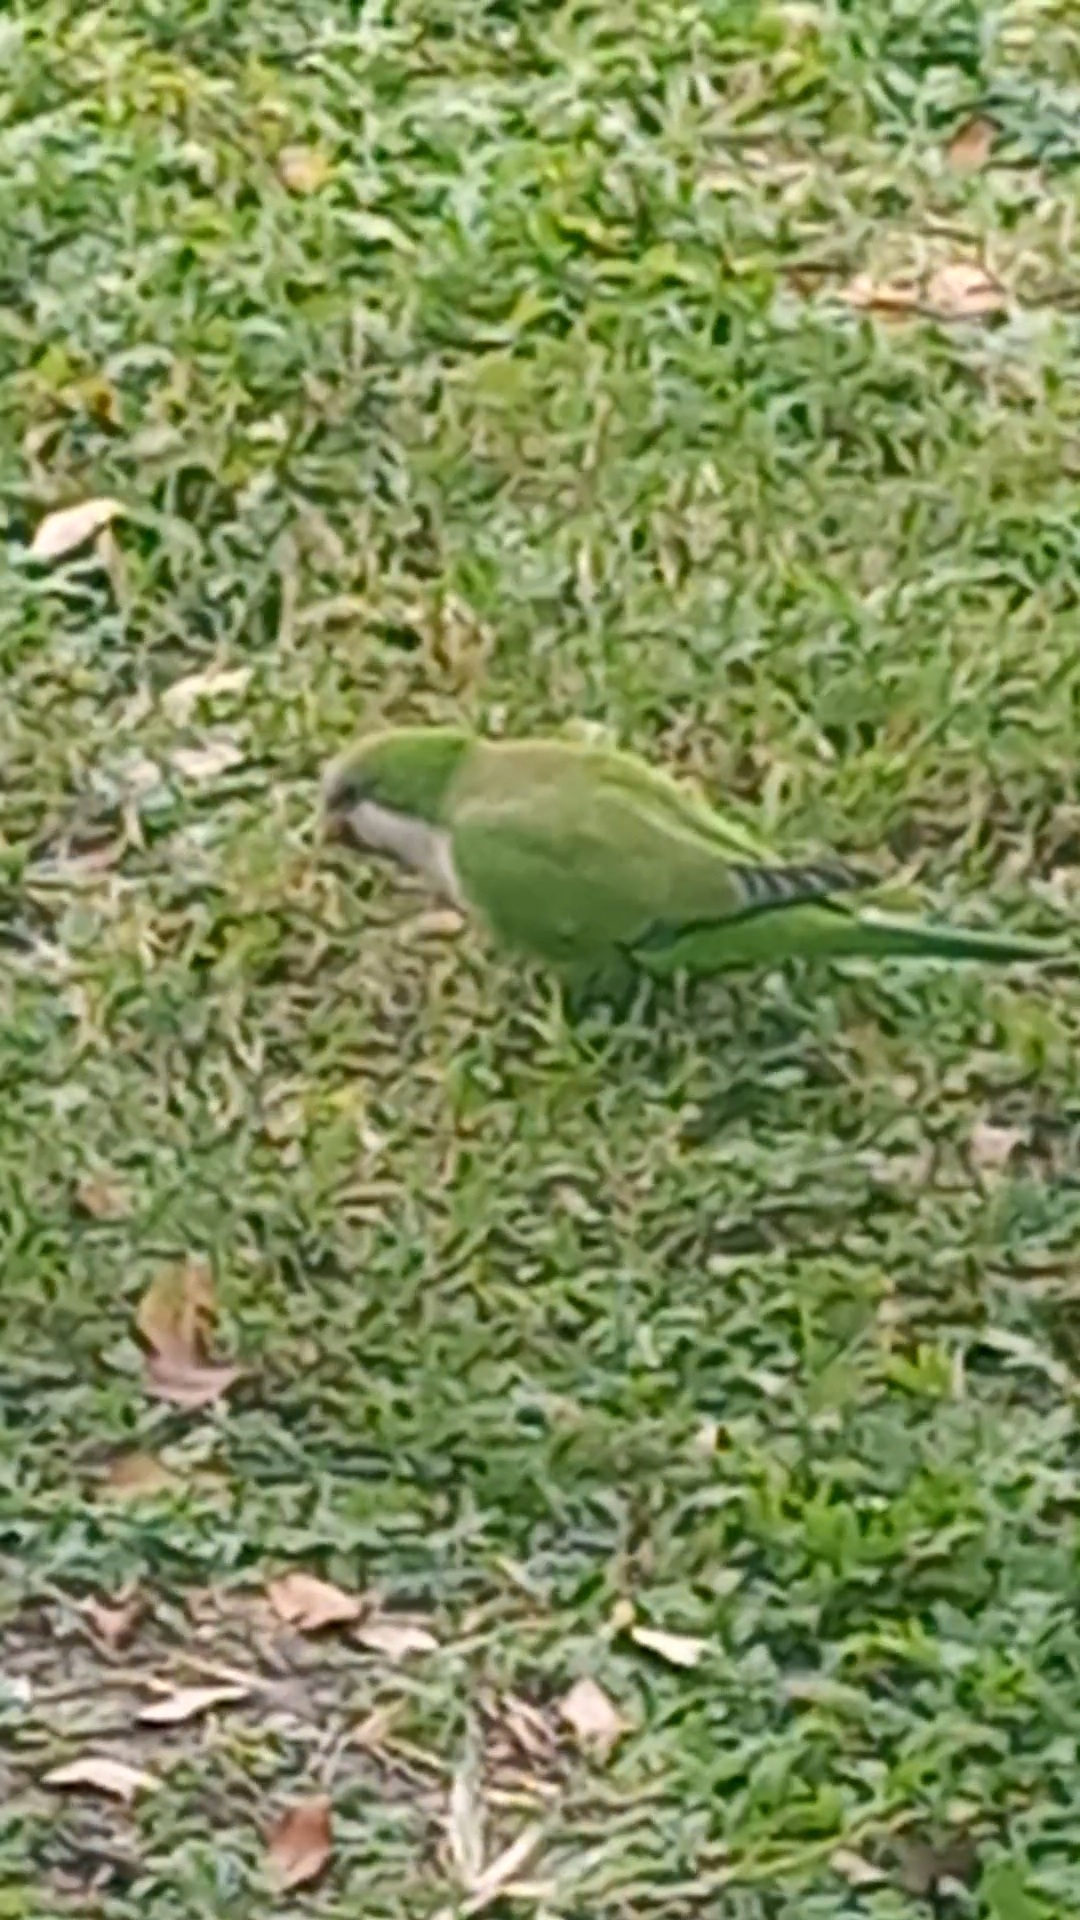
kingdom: Animalia
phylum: Chordata
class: Aves
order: Psittaciformes
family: Psittacidae
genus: Myiopsitta
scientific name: Myiopsitta monachus
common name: Monk parakeet
